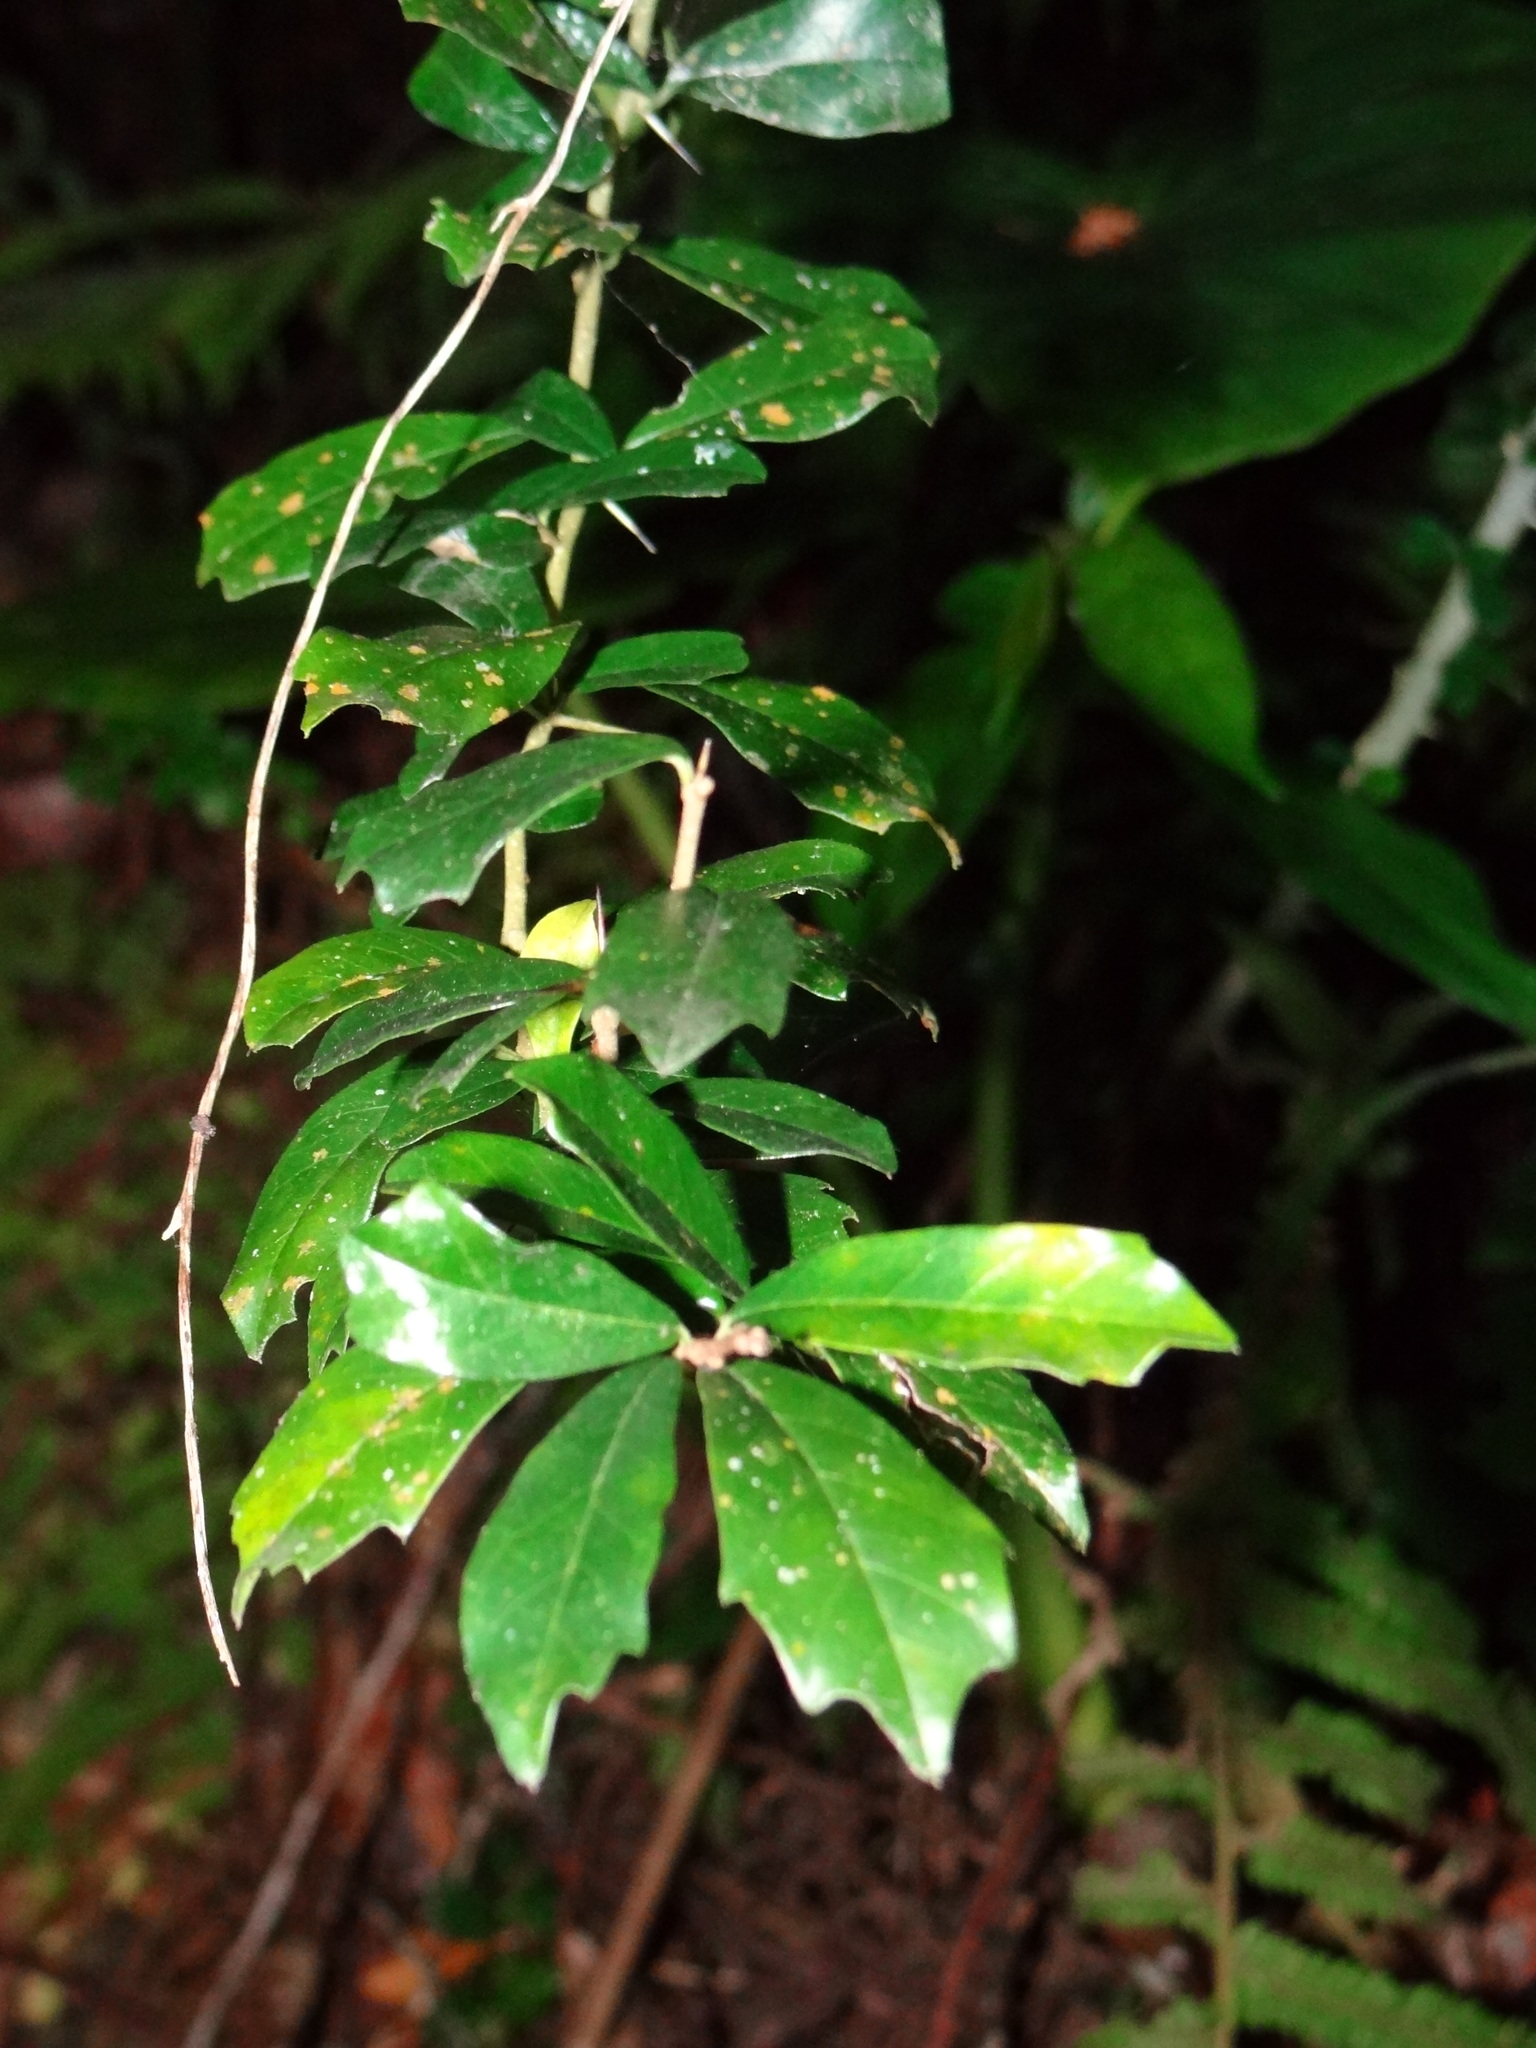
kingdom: Plantae
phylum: Tracheophyta
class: Magnoliopsida
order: Rosales
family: Moraceae
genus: Maclura
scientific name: Maclura cochinchinensis
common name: Cockspurthorn
